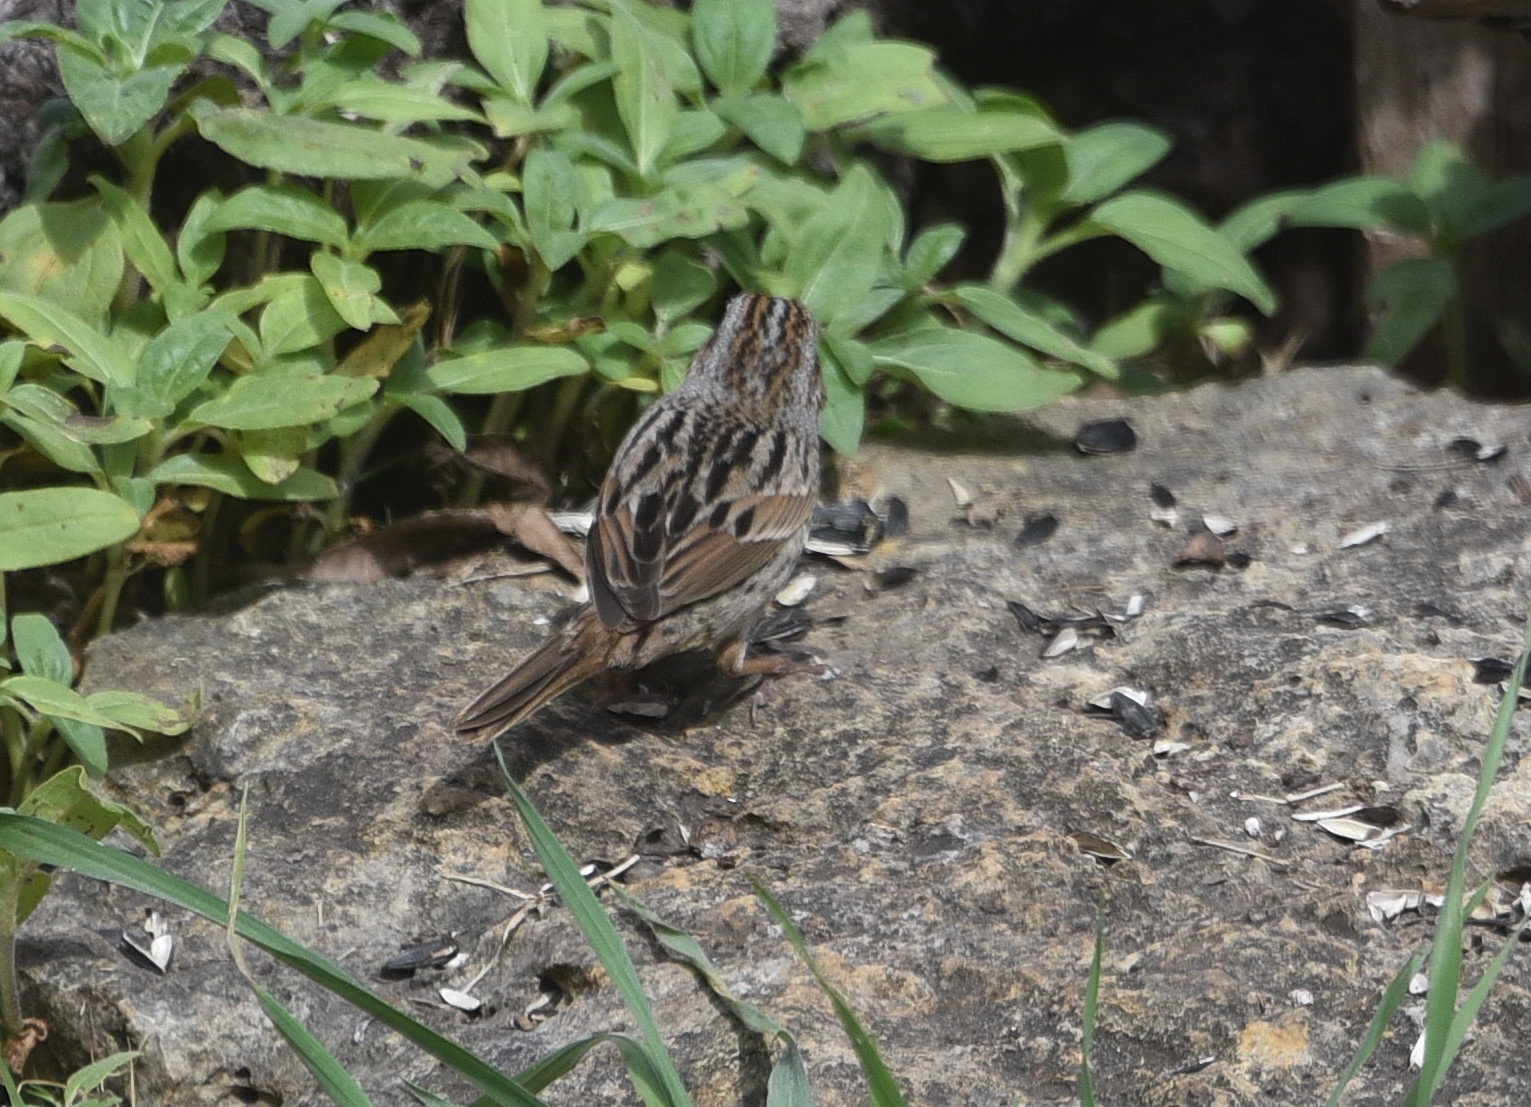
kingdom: Animalia
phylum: Chordata
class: Aves
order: Passeriformes
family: Passerellidae
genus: Melospiza
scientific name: Melospiza melodia
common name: Song sparrow
